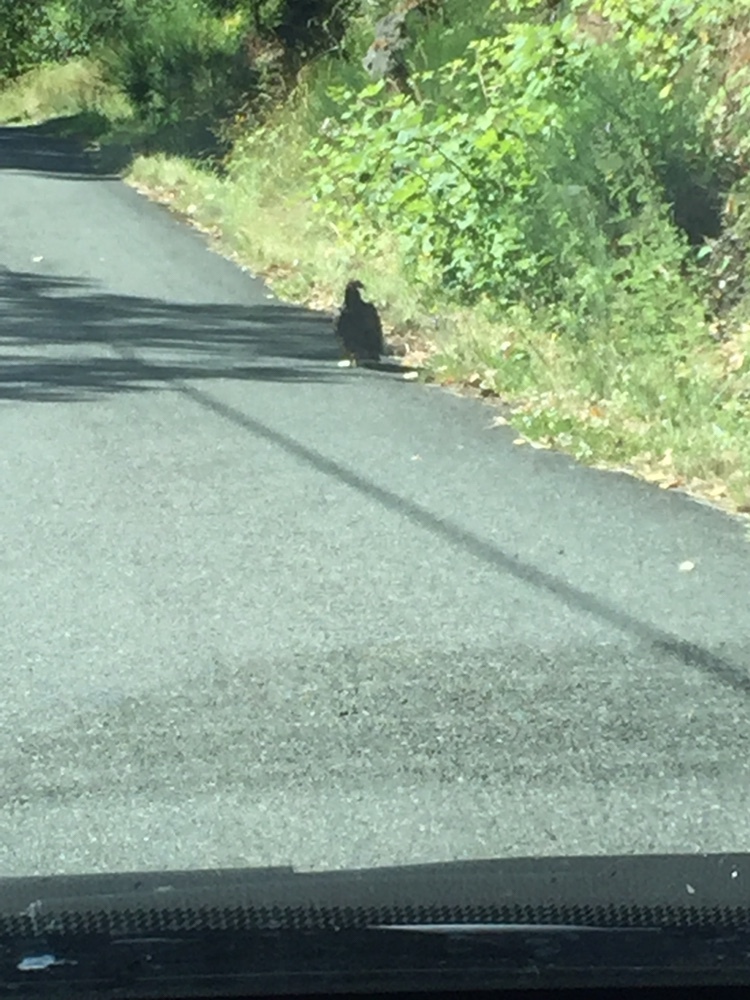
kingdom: Animalia
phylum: Chordata
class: Aves
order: Accipitriformes
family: Cathartidae
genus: Cathartes
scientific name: Cathartes aura
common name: Turkey vulture
